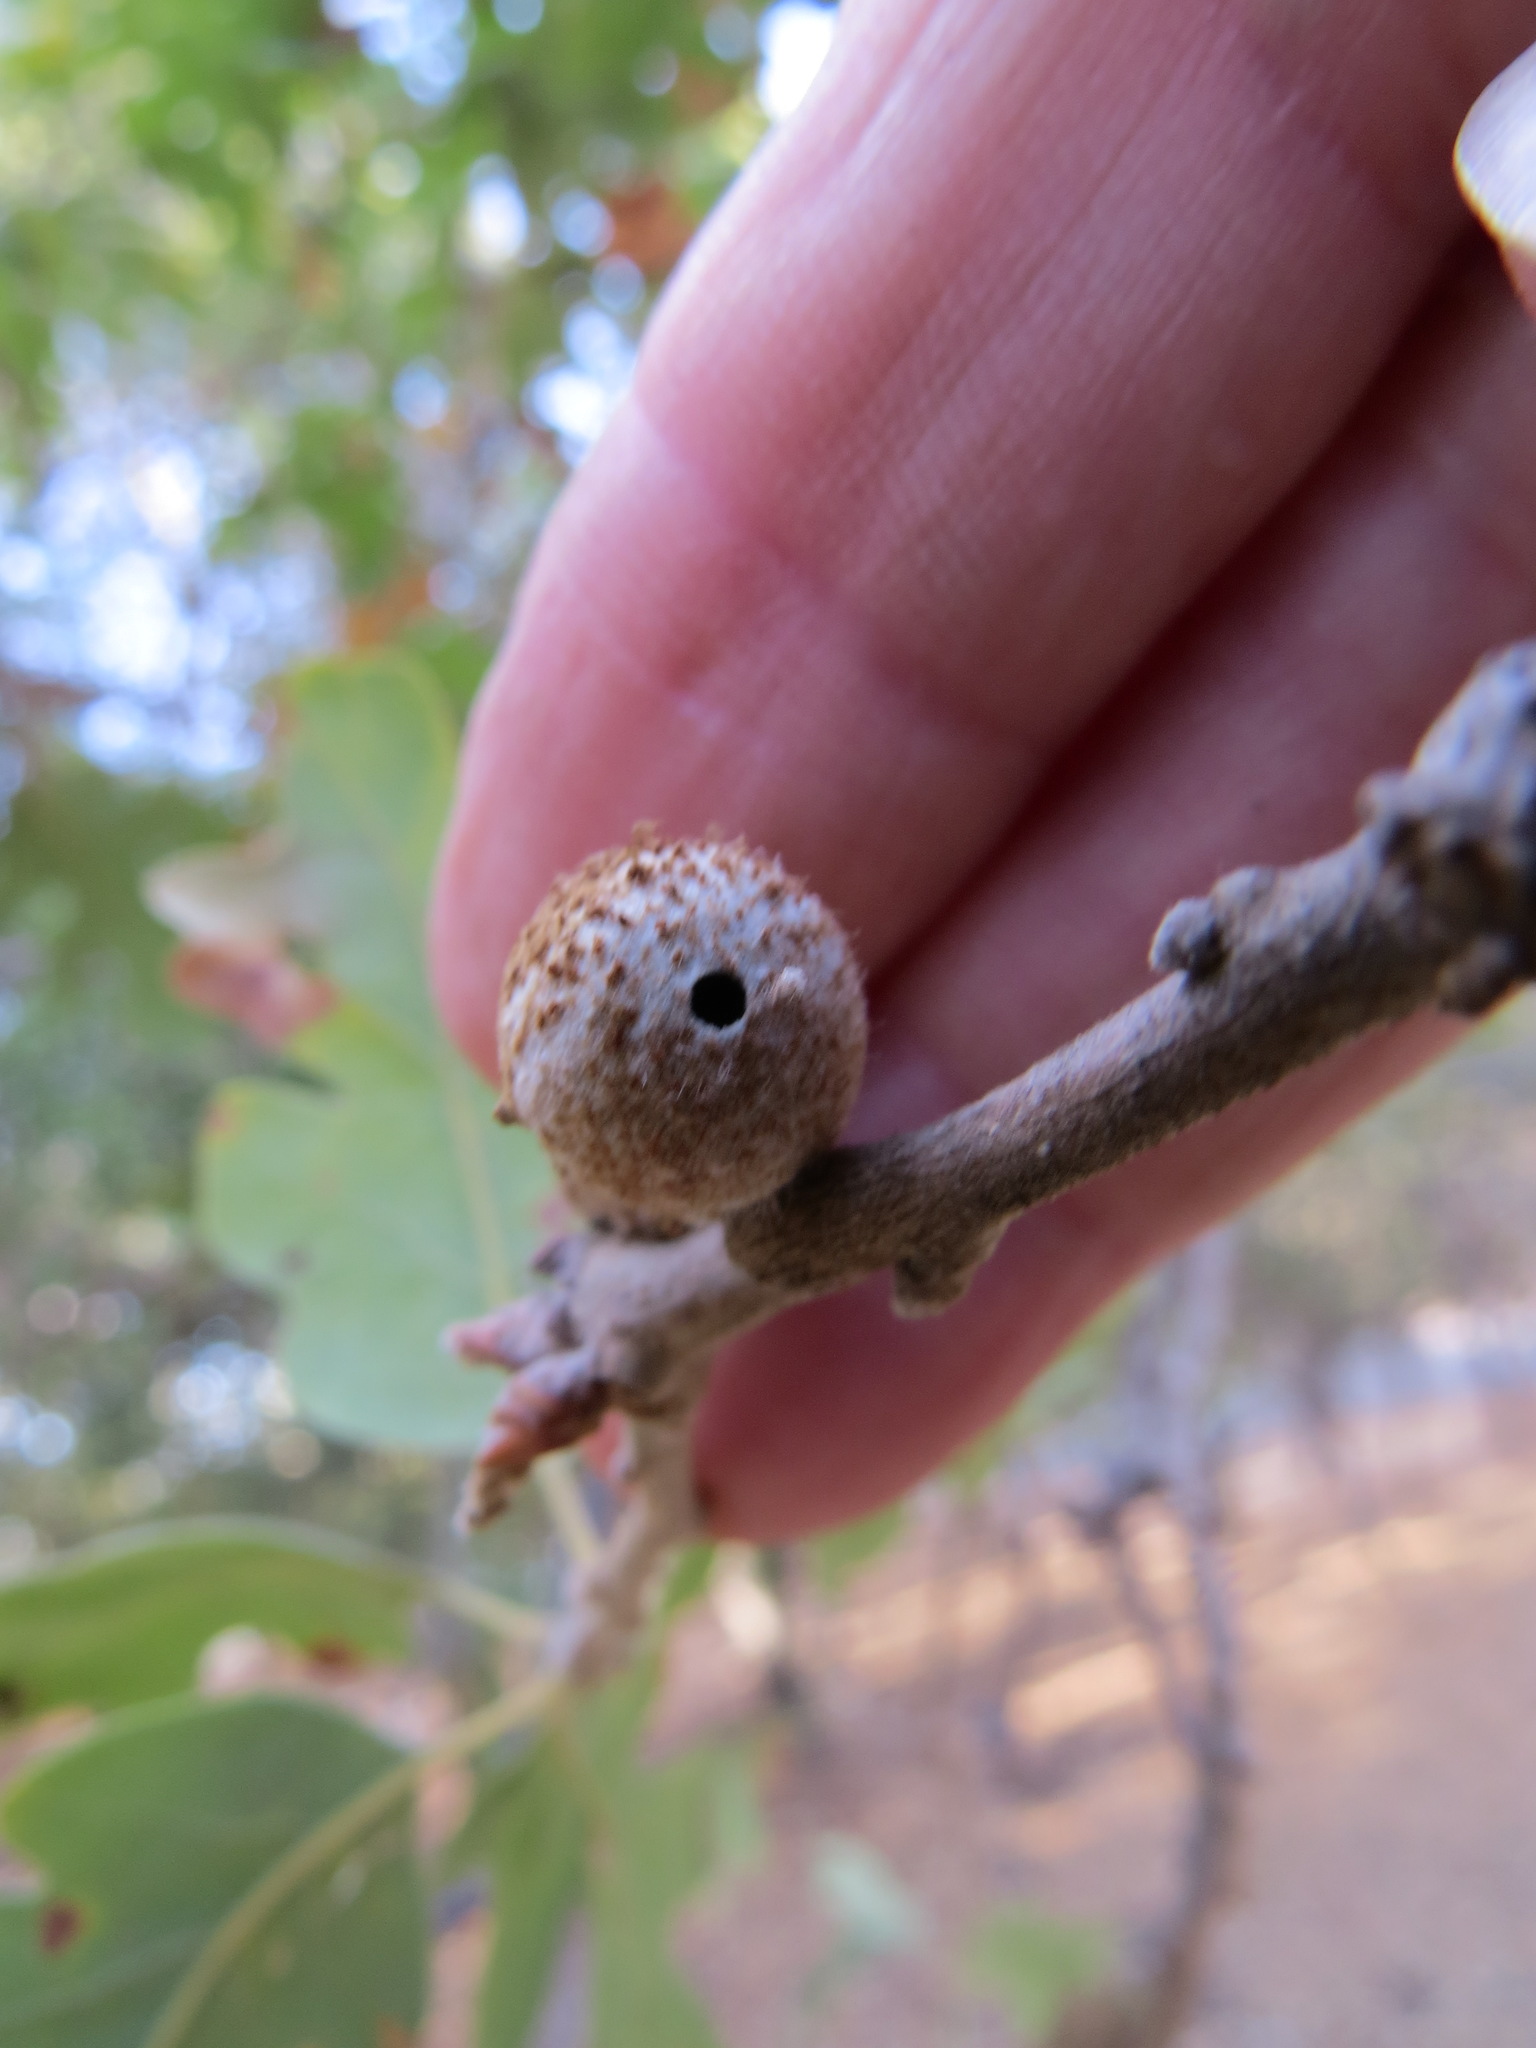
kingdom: Animalia
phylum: Arthropoda
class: Insecta
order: Hymenoptera
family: Cynipidae
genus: Burnettweldia
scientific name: Burnettweldia
